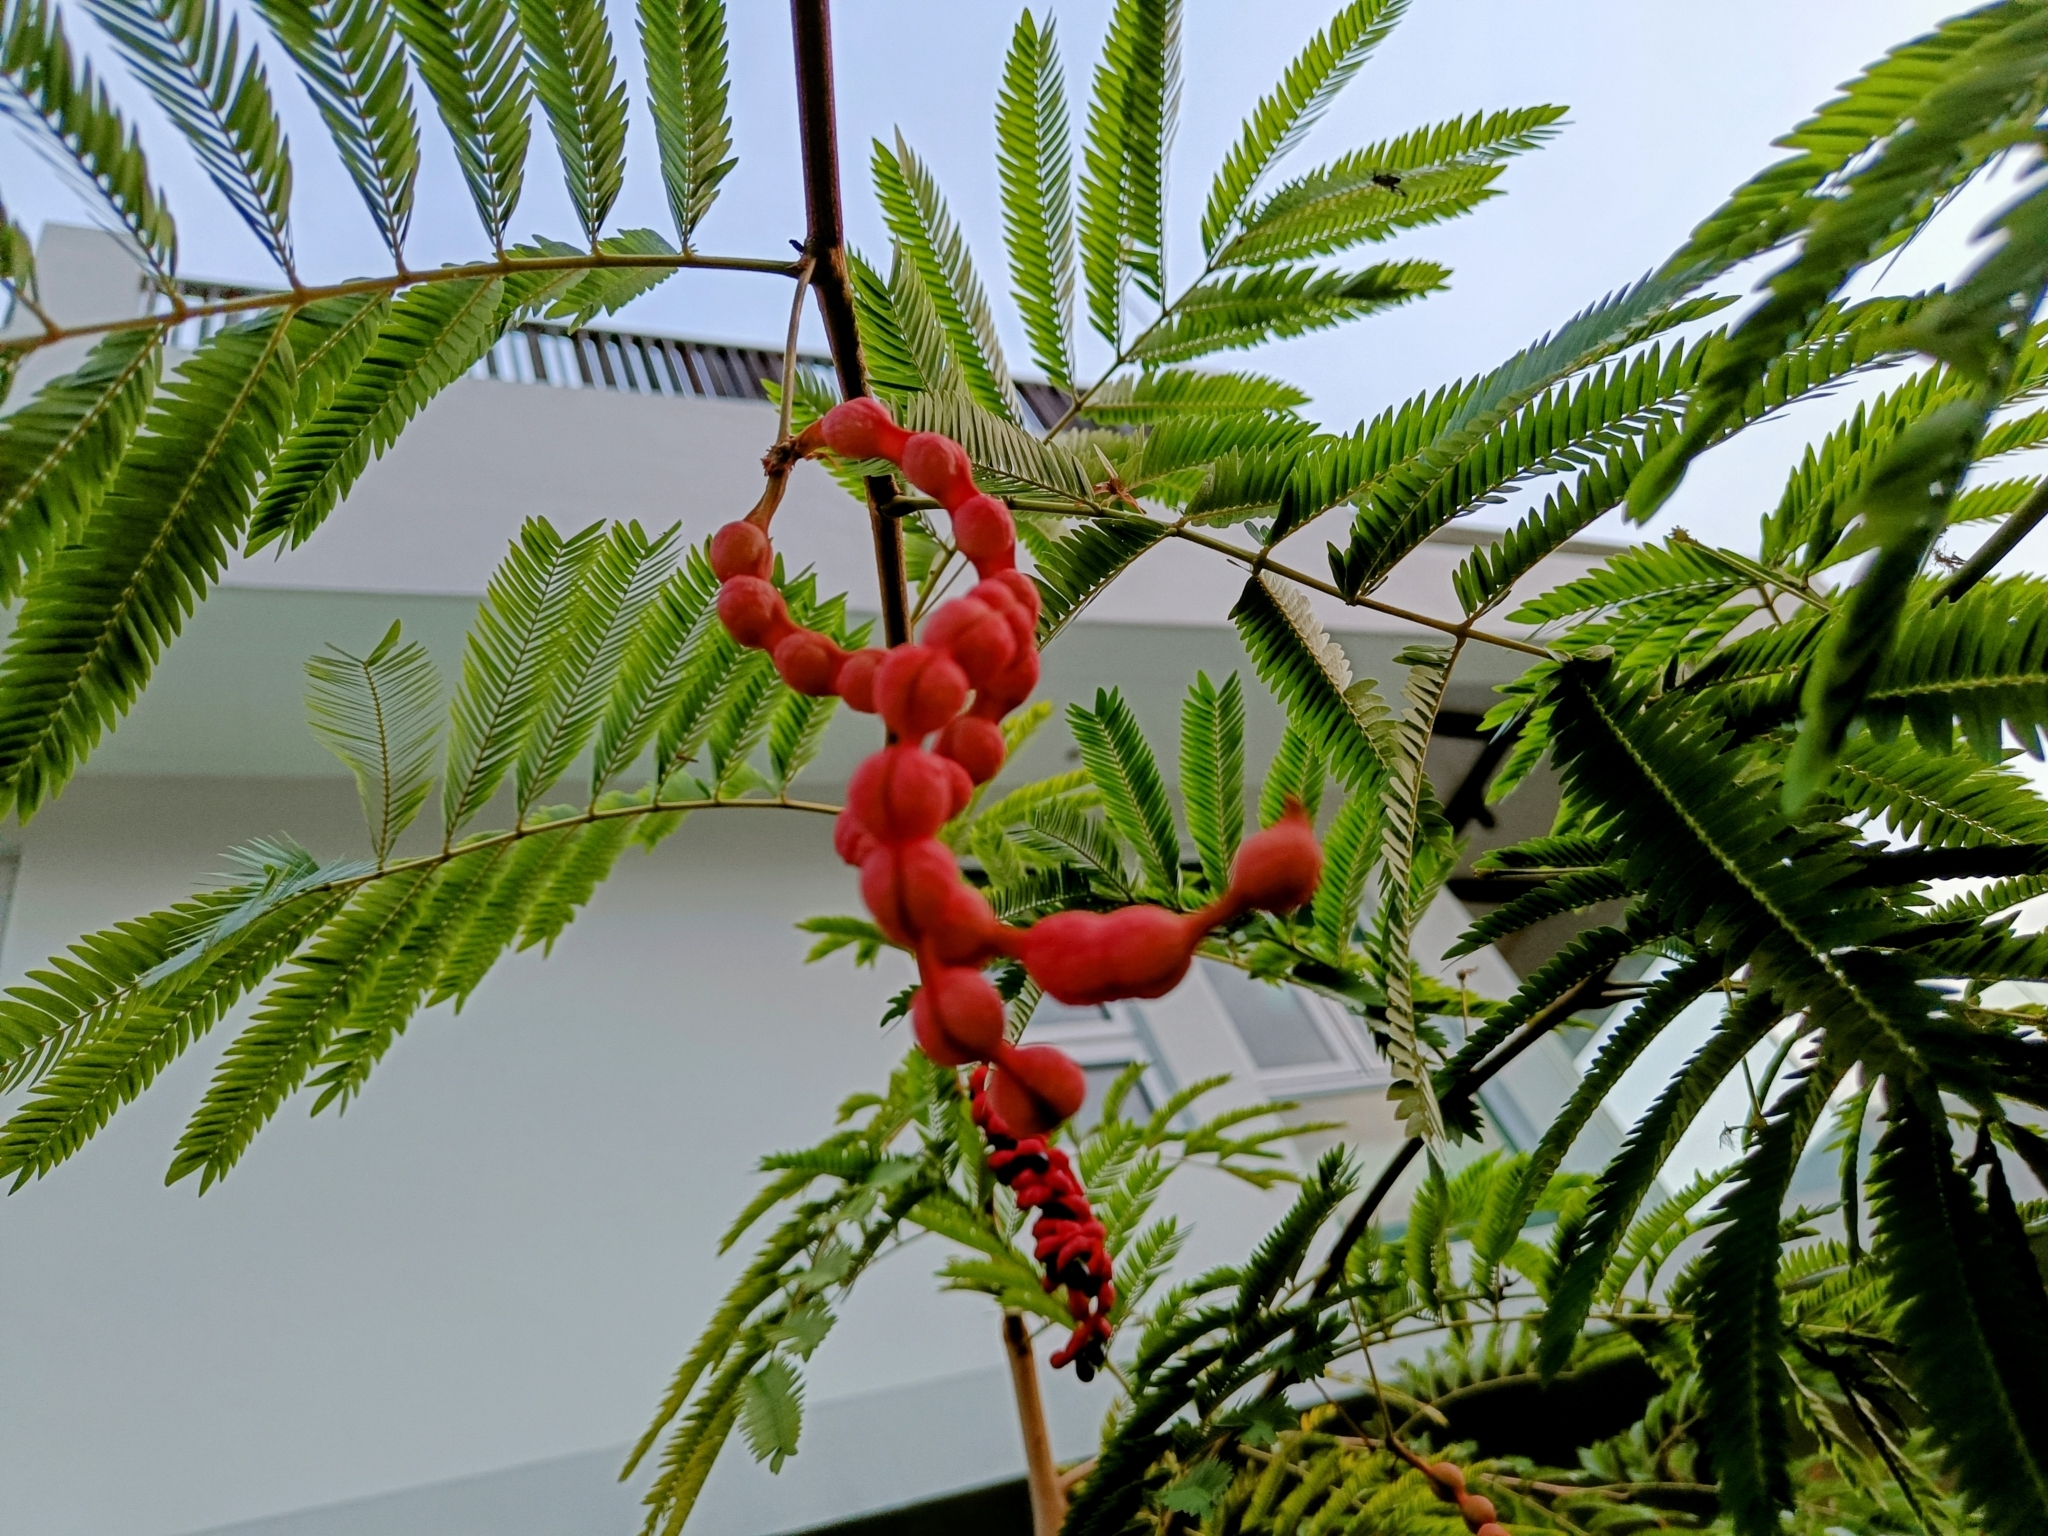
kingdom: Plantae
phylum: Tracheophyta
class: Magnoliopsida
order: Fabales
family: Fabaceae
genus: Cojoba
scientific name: Cojoba arborea
